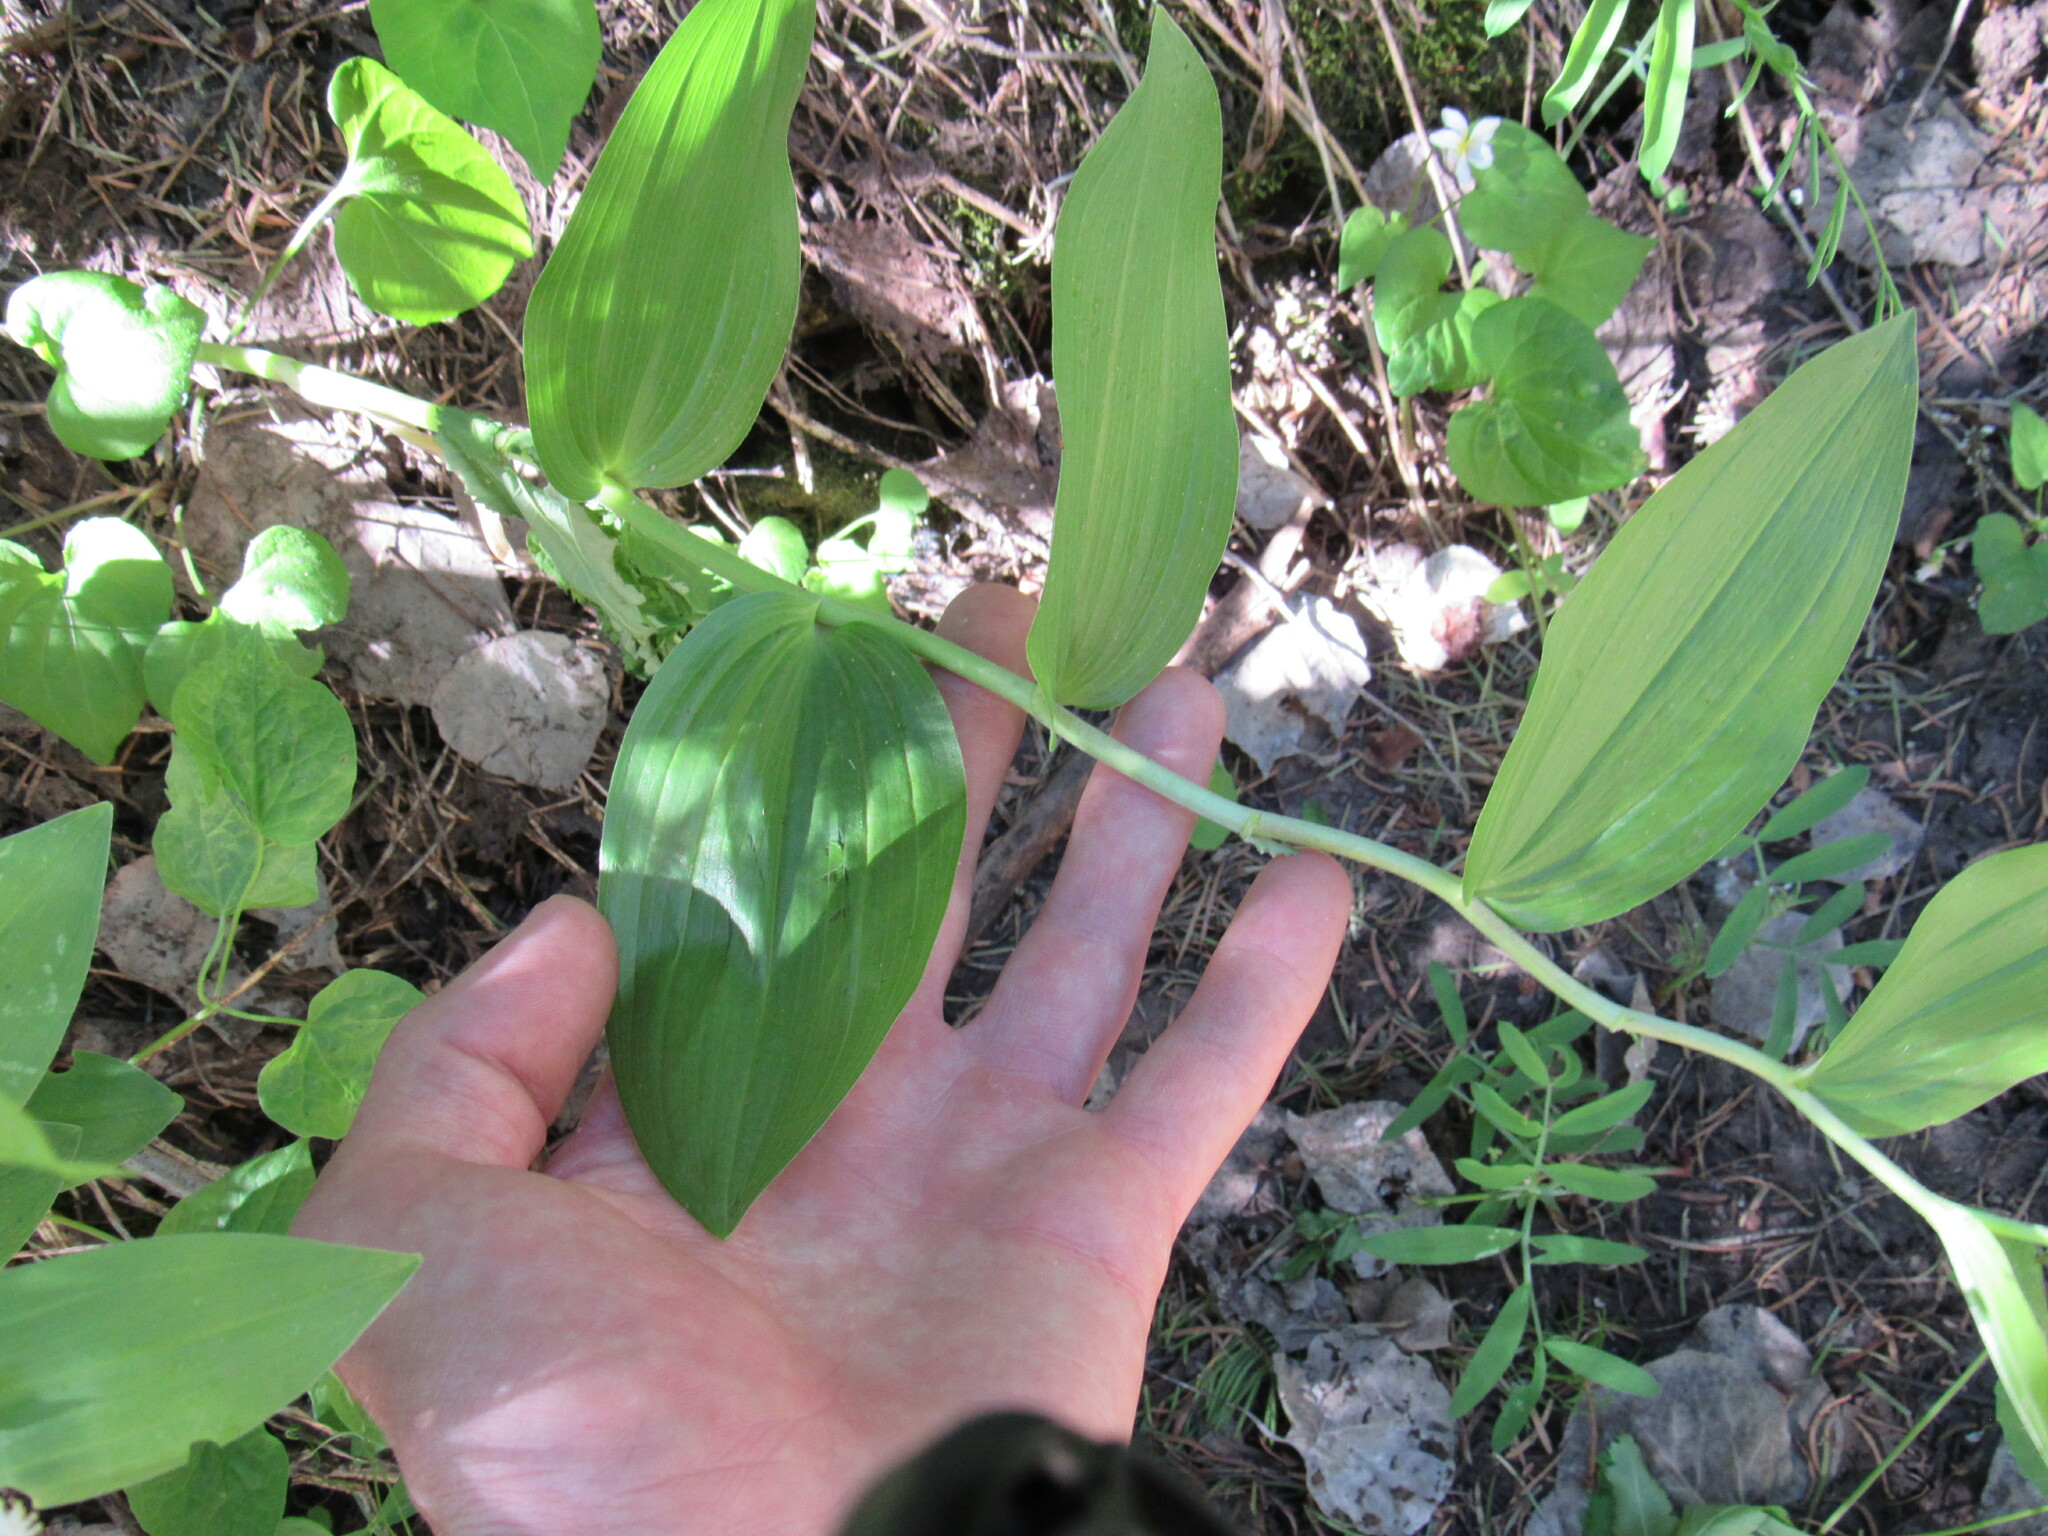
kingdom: Plantae
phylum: Tracheophyta
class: Liliopsida
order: Asparagales
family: Asparagaceae
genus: Maianthemum
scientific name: Maianthemum racemosum
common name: False spikenard
